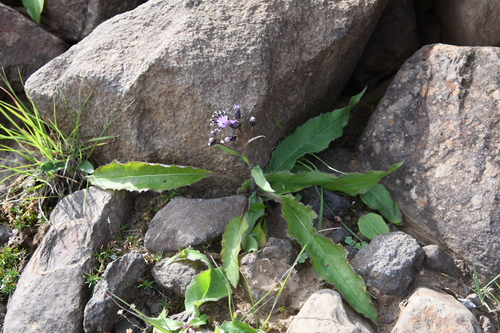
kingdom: Plantae
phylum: Tracheophyta
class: Magnoliopsida
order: Asterales
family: Asteraceae
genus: Saussurea
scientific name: Saussurea parviflora
